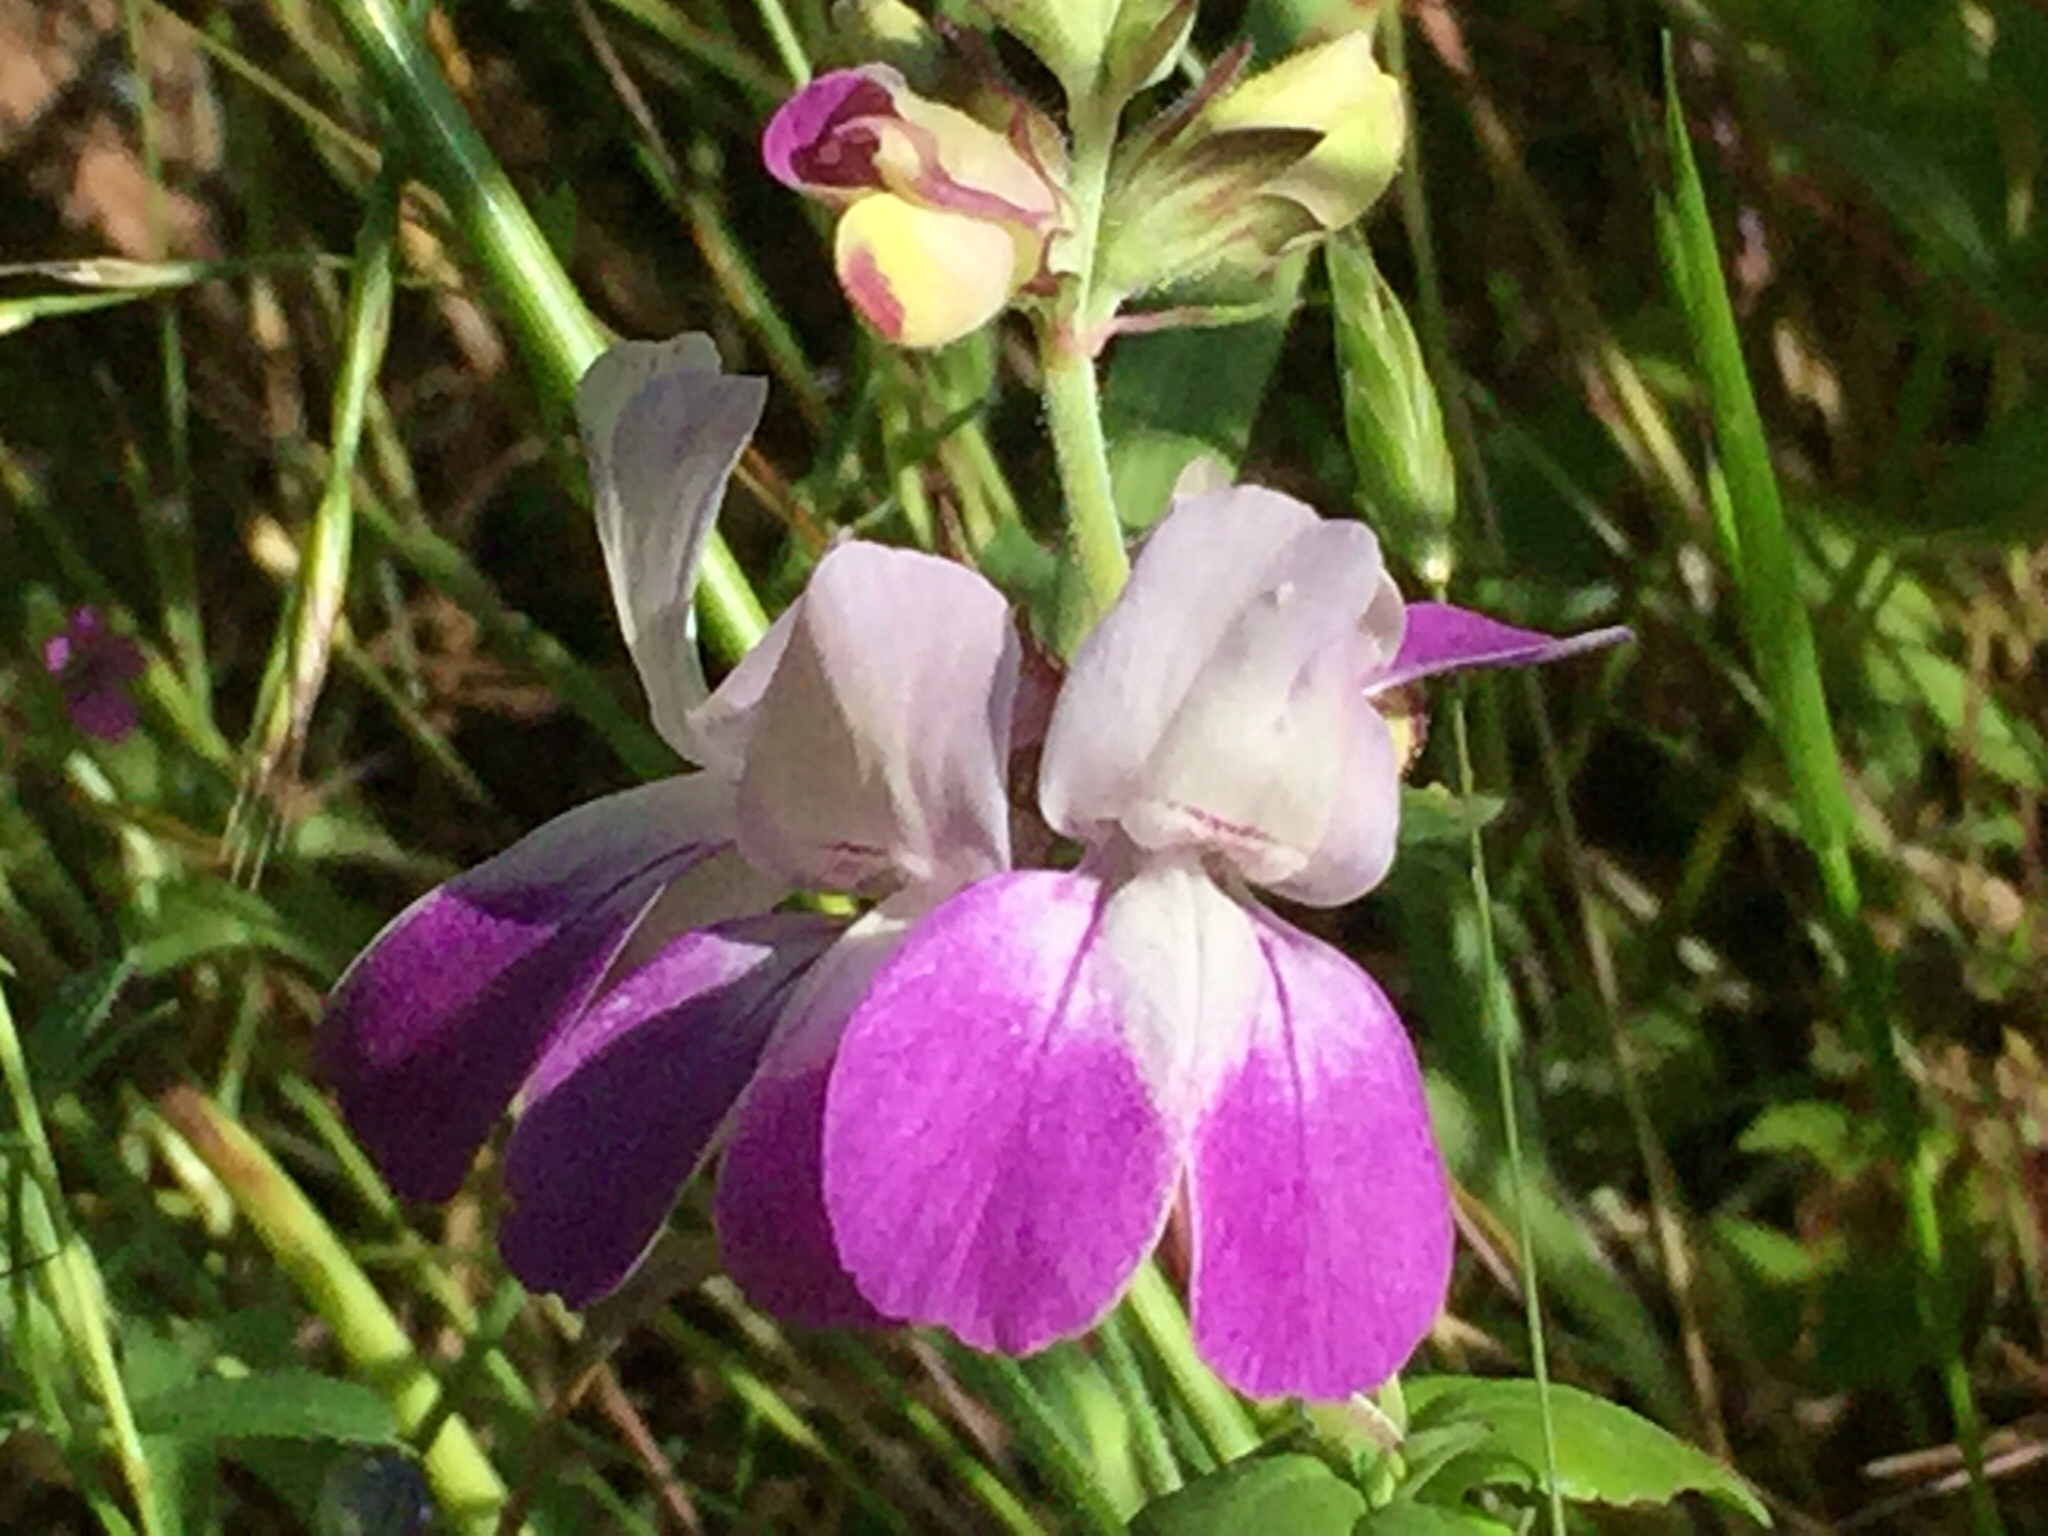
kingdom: Plantae
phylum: Tracheophyta
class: Magnoliopsida
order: Lamiales
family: Plantaginaceae
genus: Collinsia
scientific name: Collinsia heterophylla
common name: Chinese-houses
